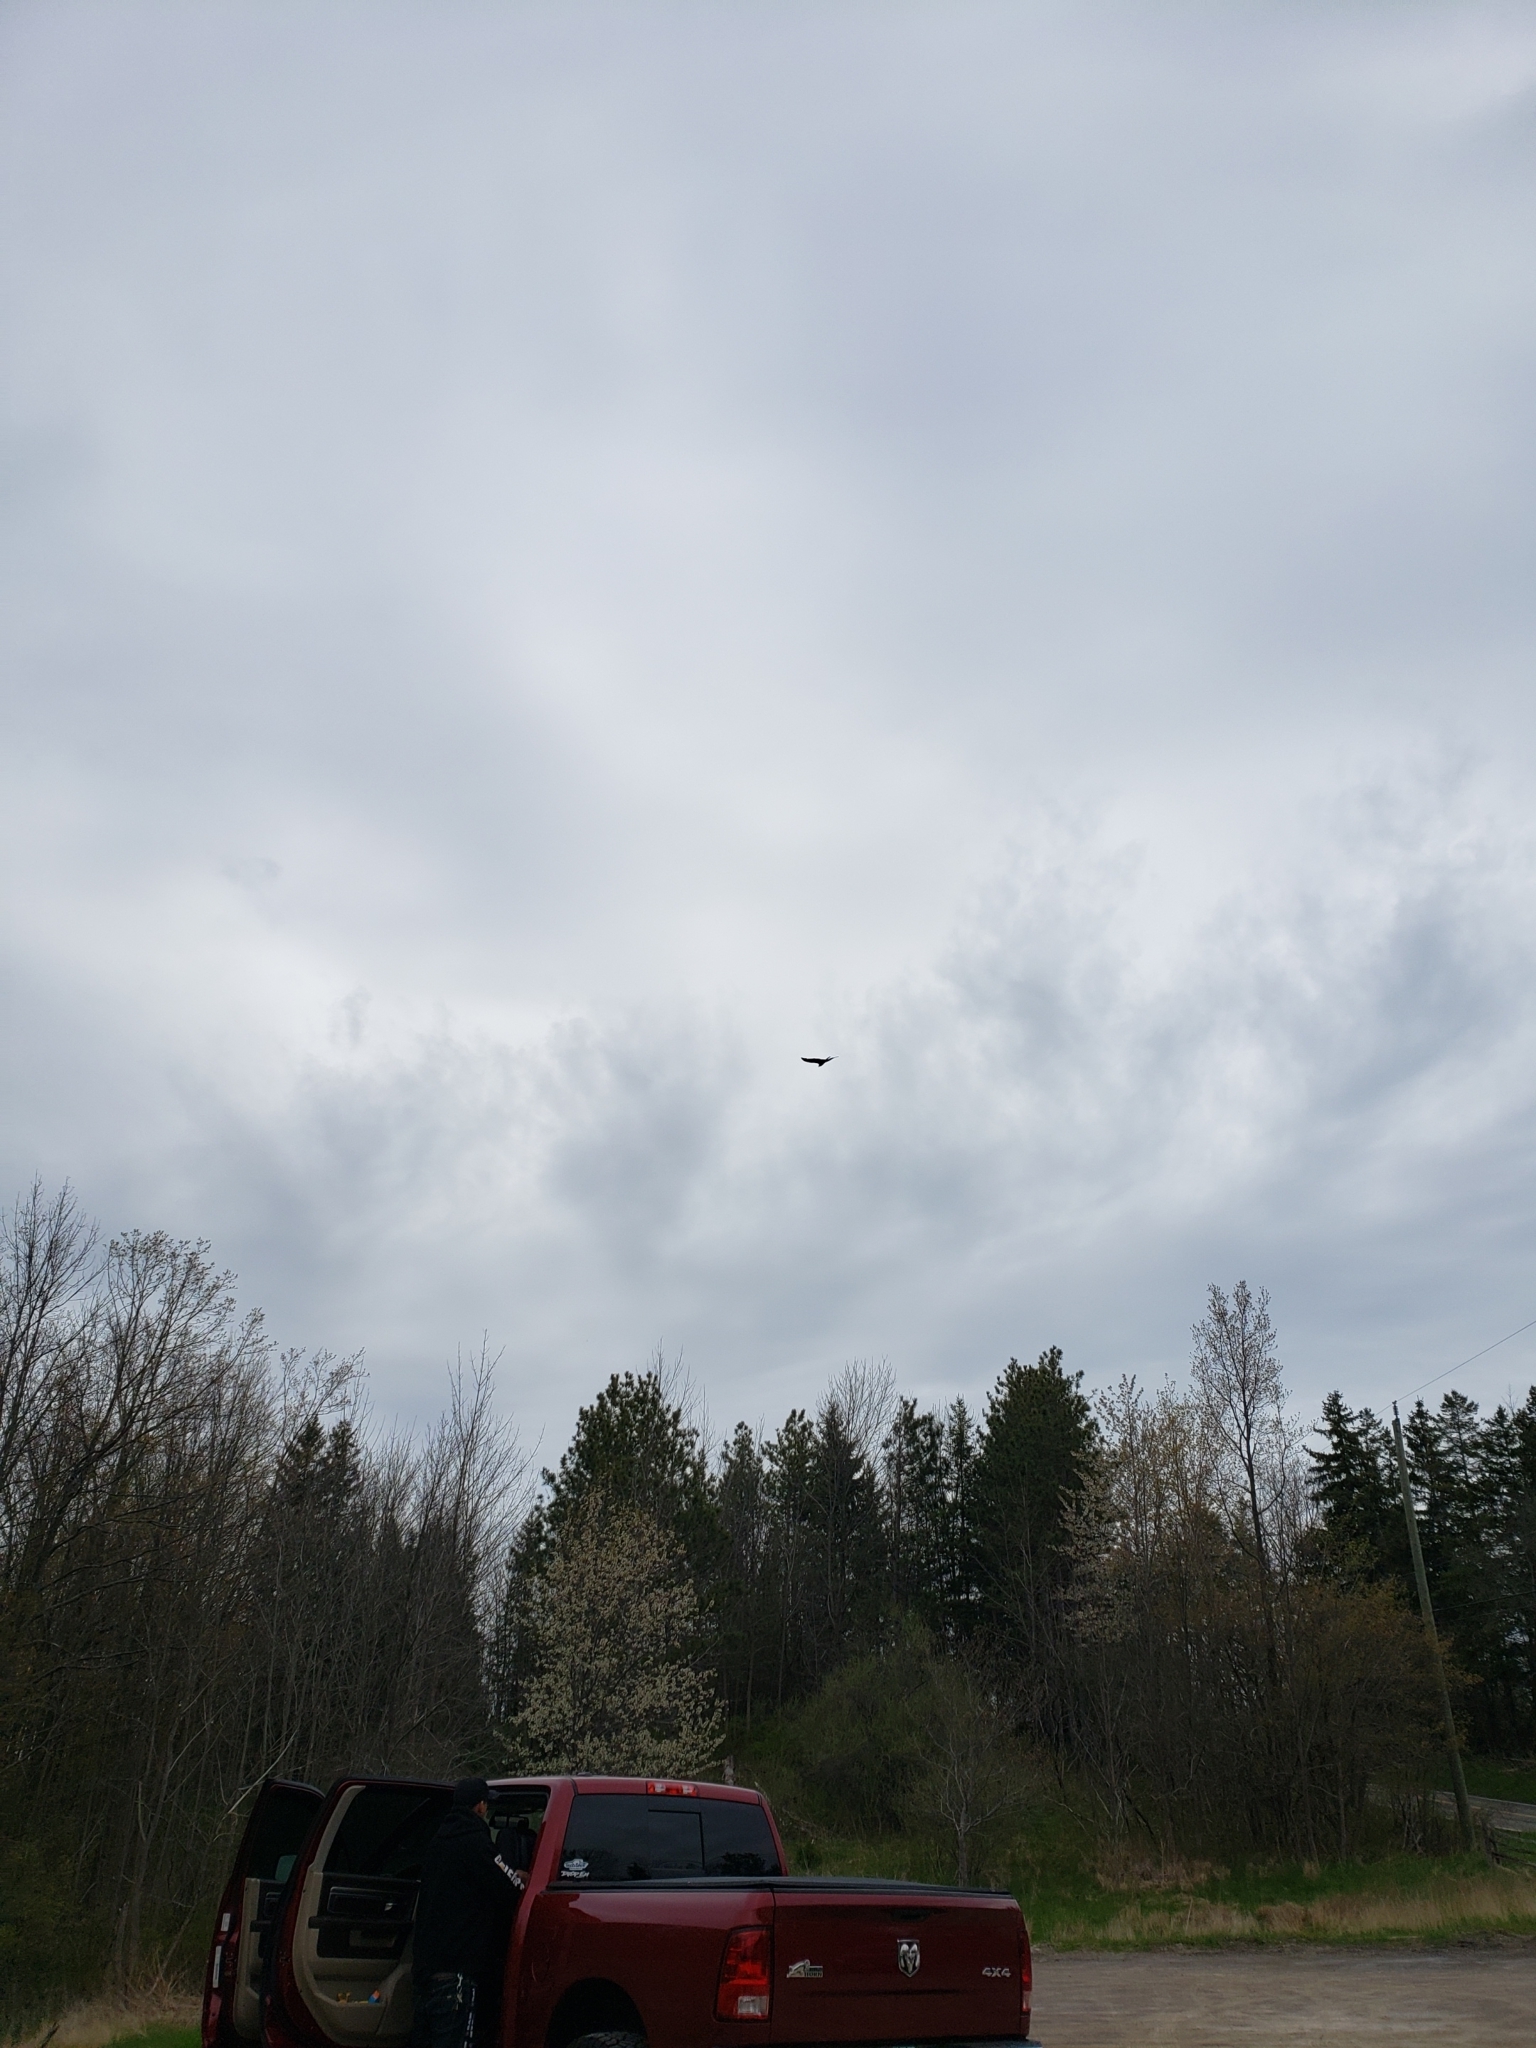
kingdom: Animalia
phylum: Chordata
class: Aves
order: Accipitriformes
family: Cathartidae
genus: Cathartes
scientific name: Cathartes aura
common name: Turkey vulture
